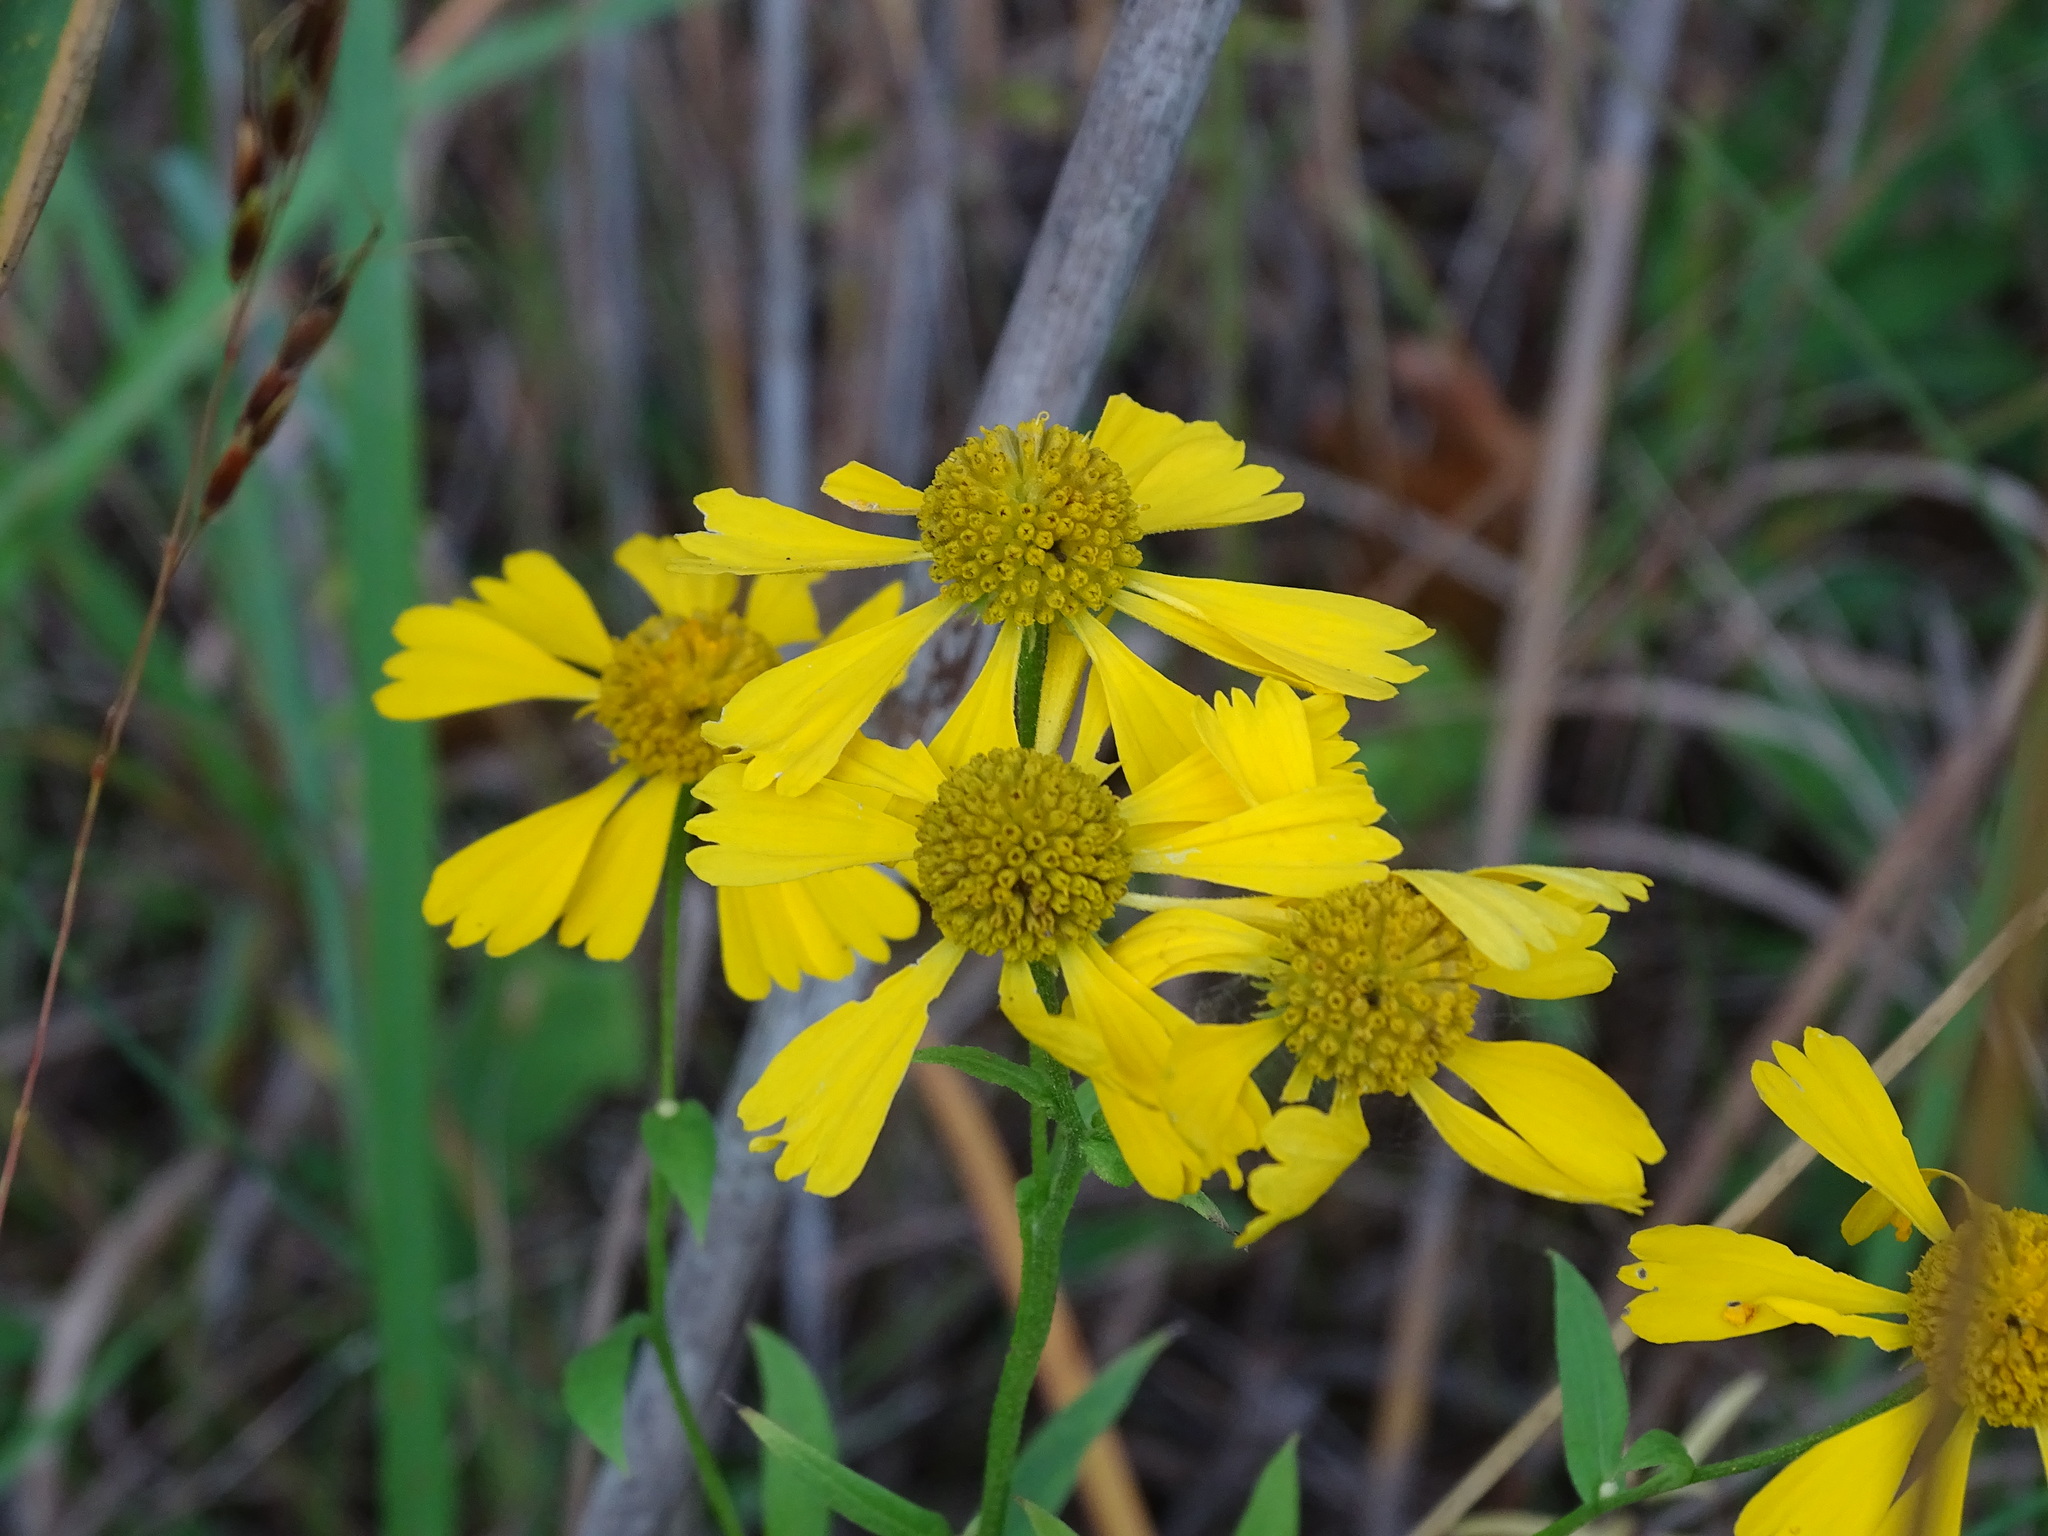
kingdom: Plantae
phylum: Tracheophyta
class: Magnoliopsida
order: Asterales
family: Asteraceae
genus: Helenium
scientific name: Helenium autumnale
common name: Sneezeweed
